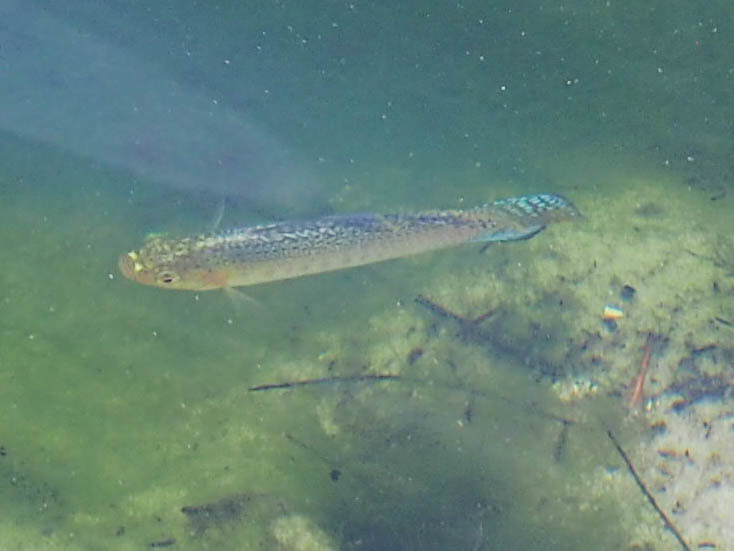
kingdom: Animalia
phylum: Chordata
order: Cyprinodontiformes
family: Poeciliidae
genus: Poecilia
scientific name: Poecilia latipinna
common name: Sailfin molly
